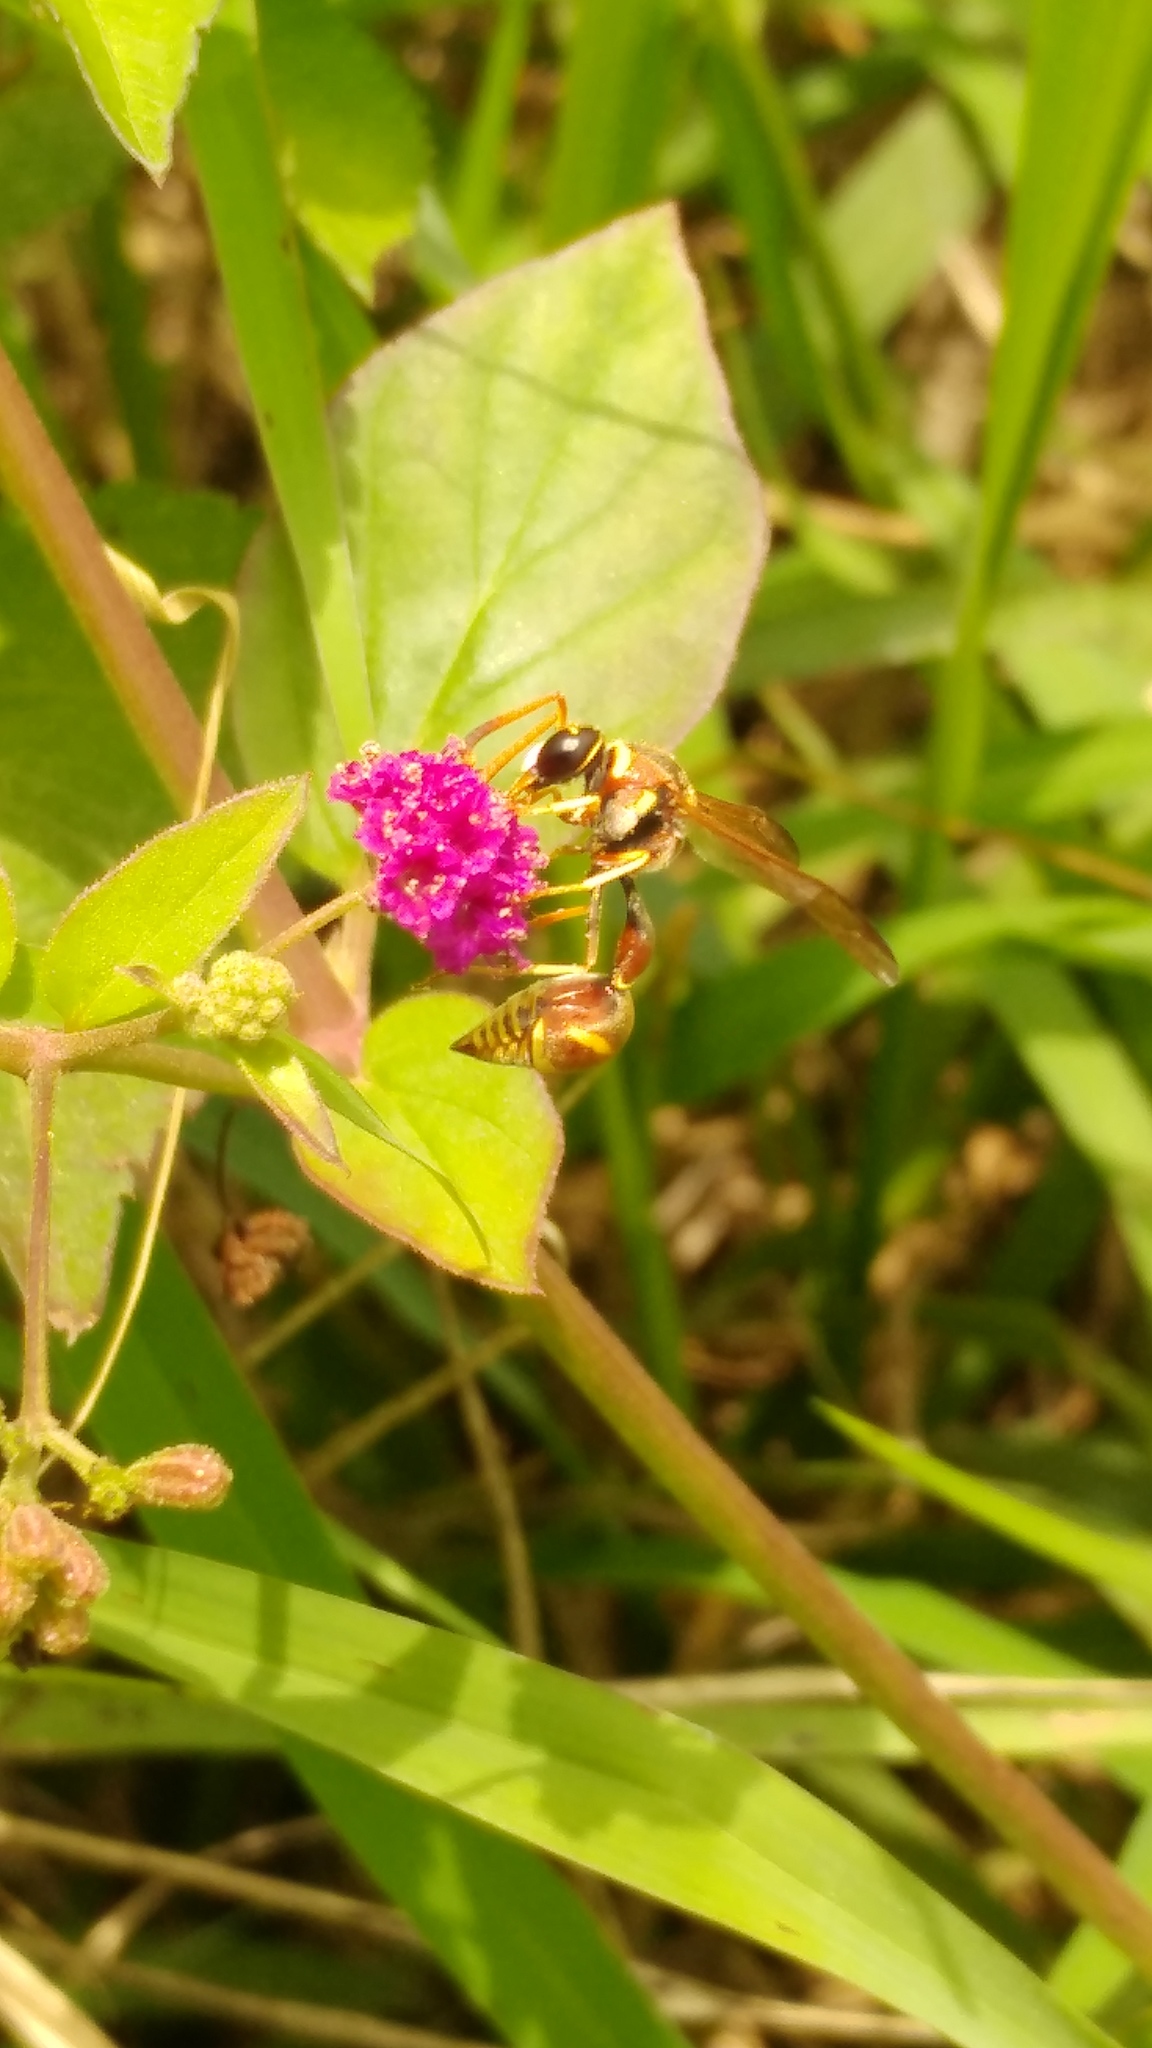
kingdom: Animalia
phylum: Arthropoda
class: Insecta
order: Hymenoptera
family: Vespidae
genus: Eumenes
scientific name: Eumenes americanus
